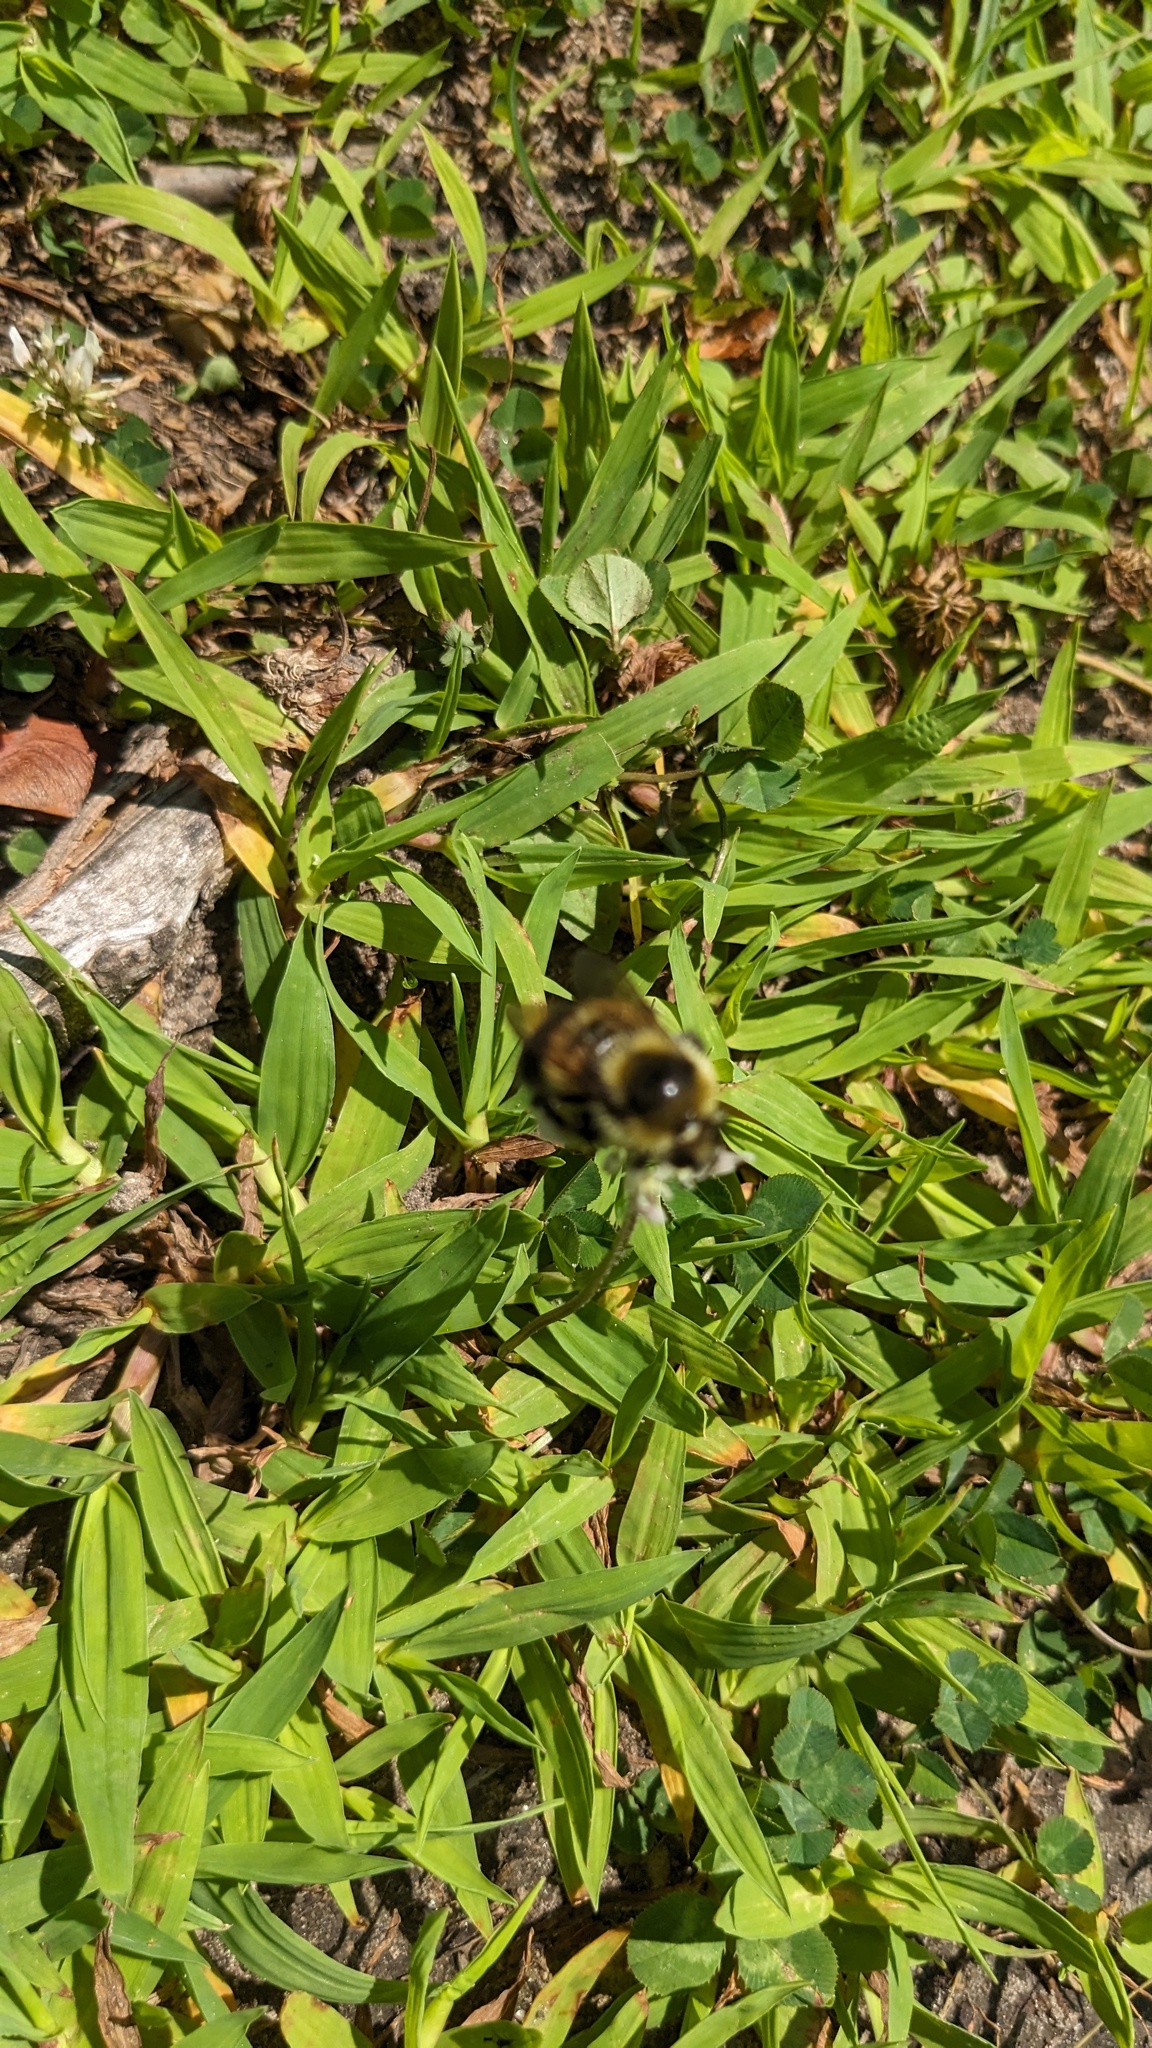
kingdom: Animalia
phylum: Arthropoda
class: Insecta
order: Hymenoptera
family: Apidae
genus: Bombus
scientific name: Bombus rufocinctus
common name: Red-belted bumble bee
